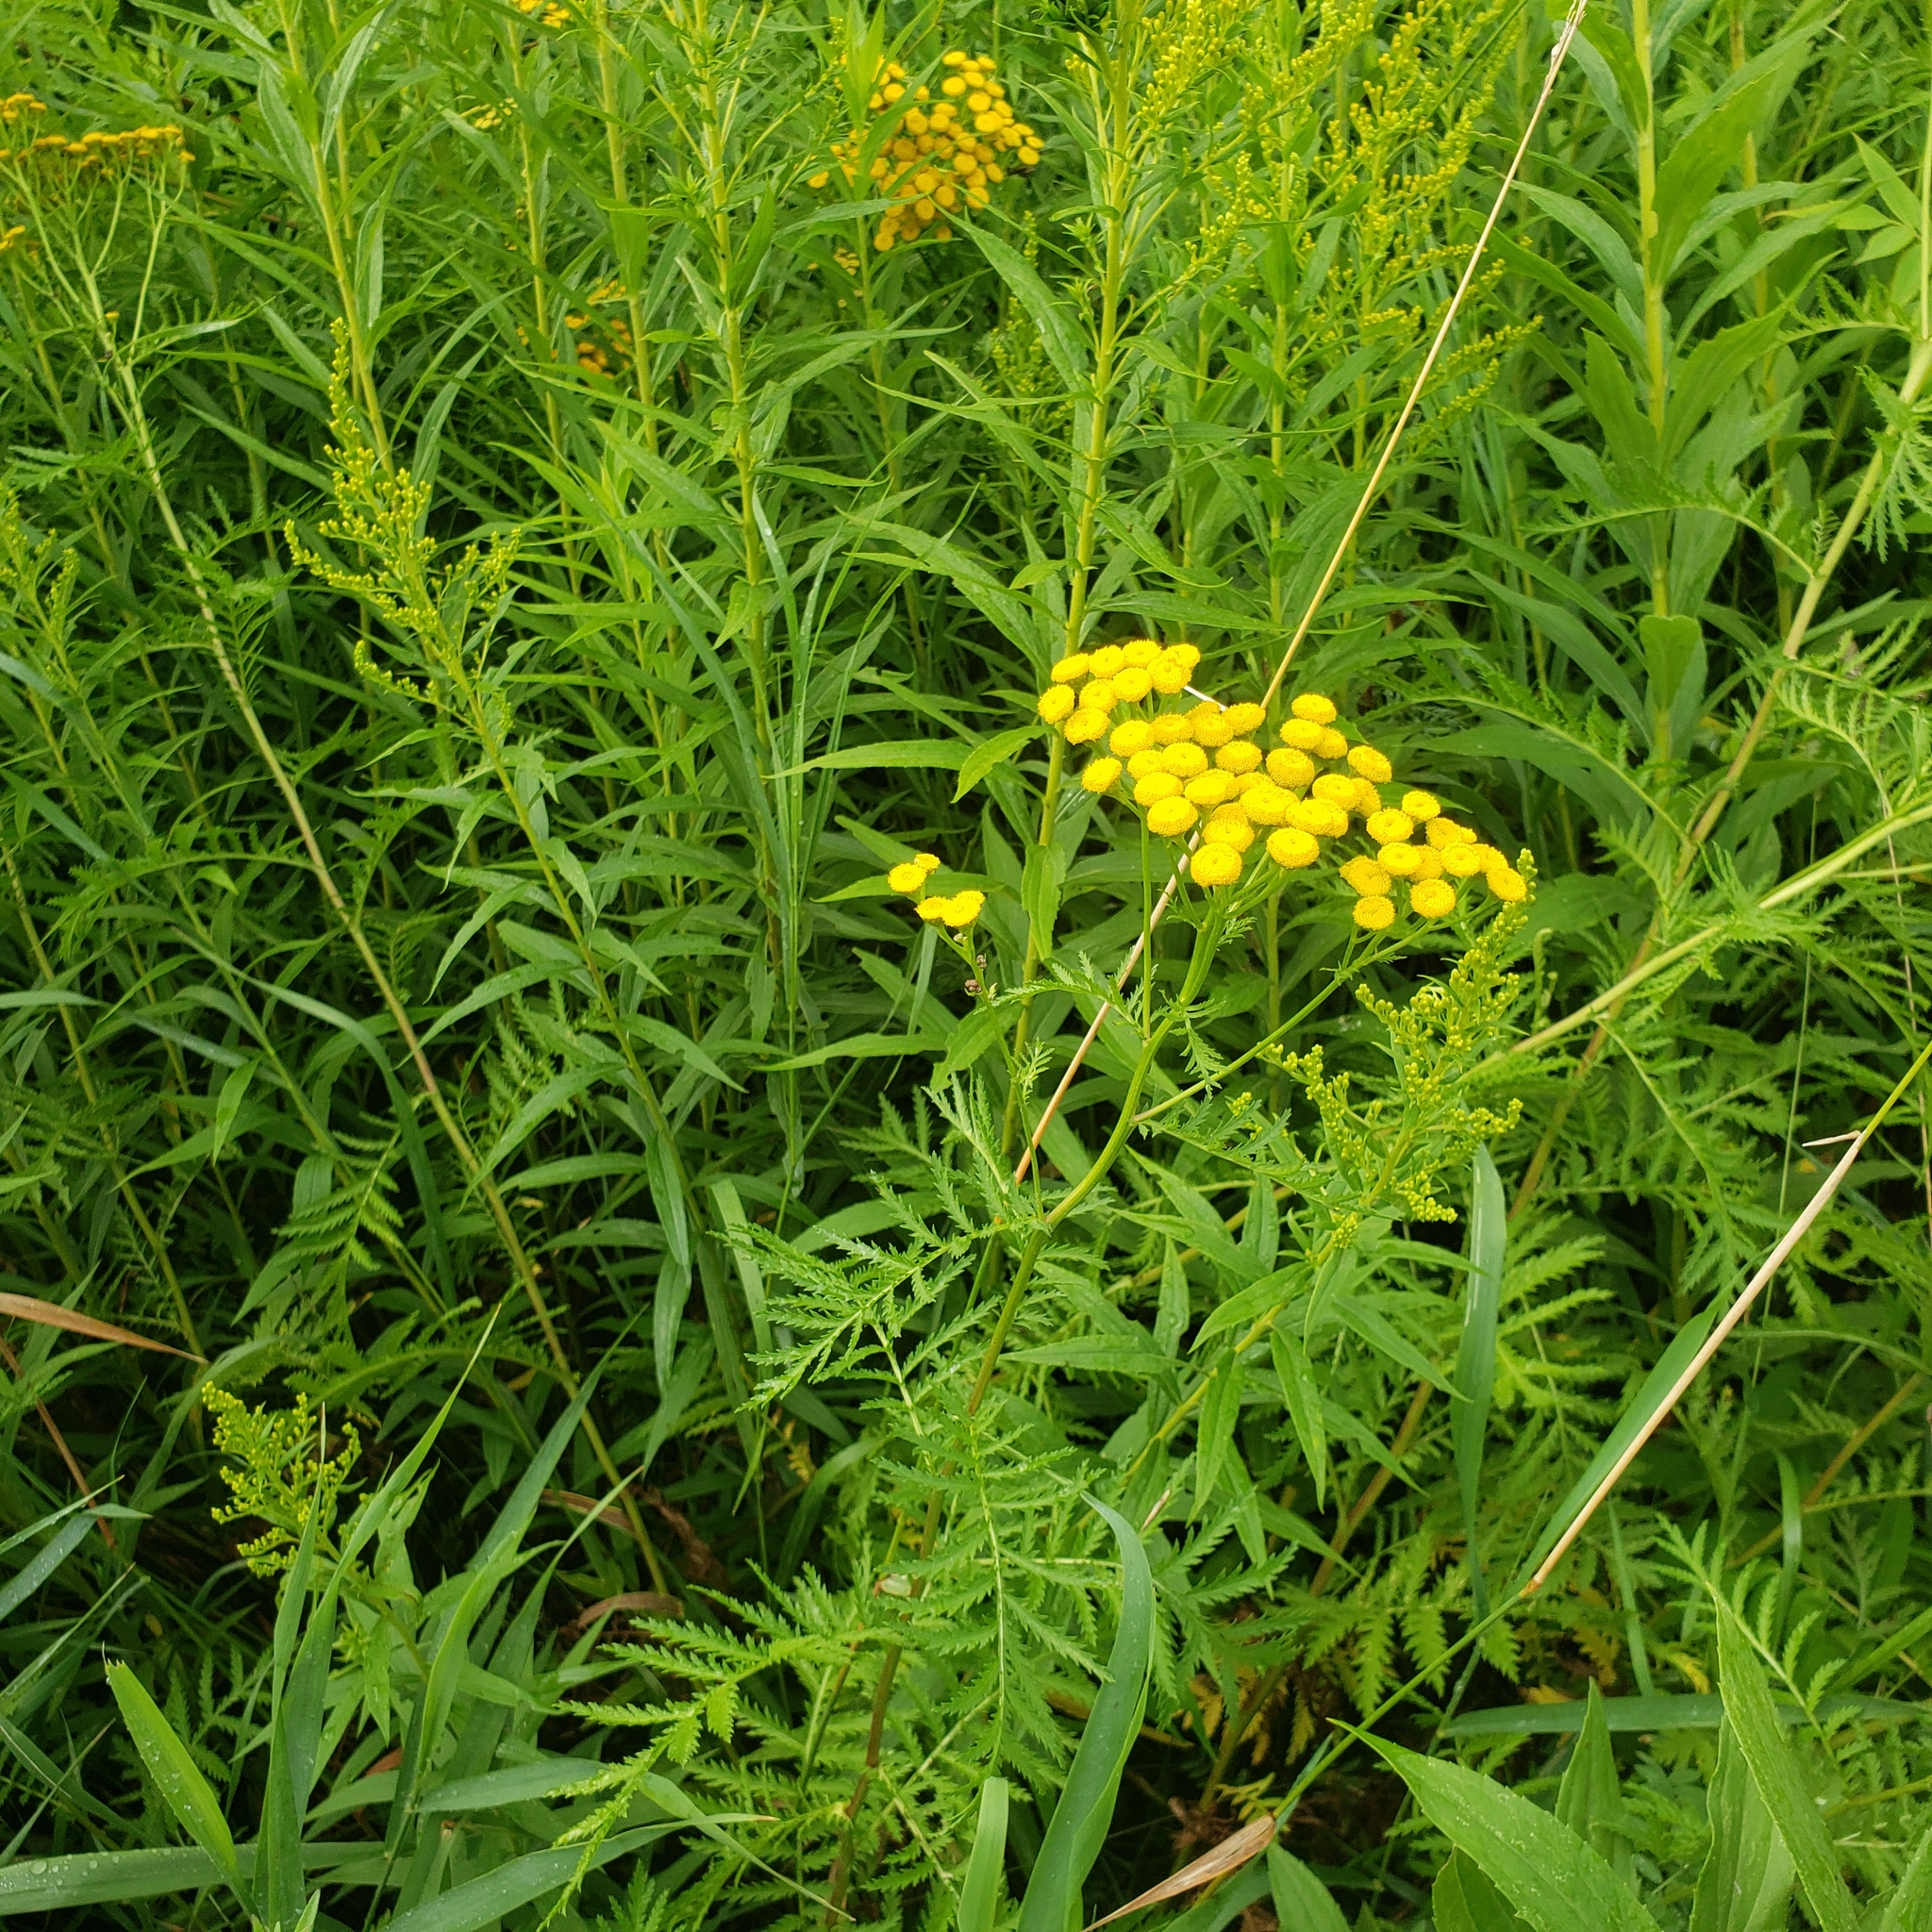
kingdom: Plantae
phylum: Tracheophyta
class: Magnoliopsida
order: Asterales
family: Asteraceae
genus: Tanacetum
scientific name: Tanacetum vulgare
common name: Common tansy
